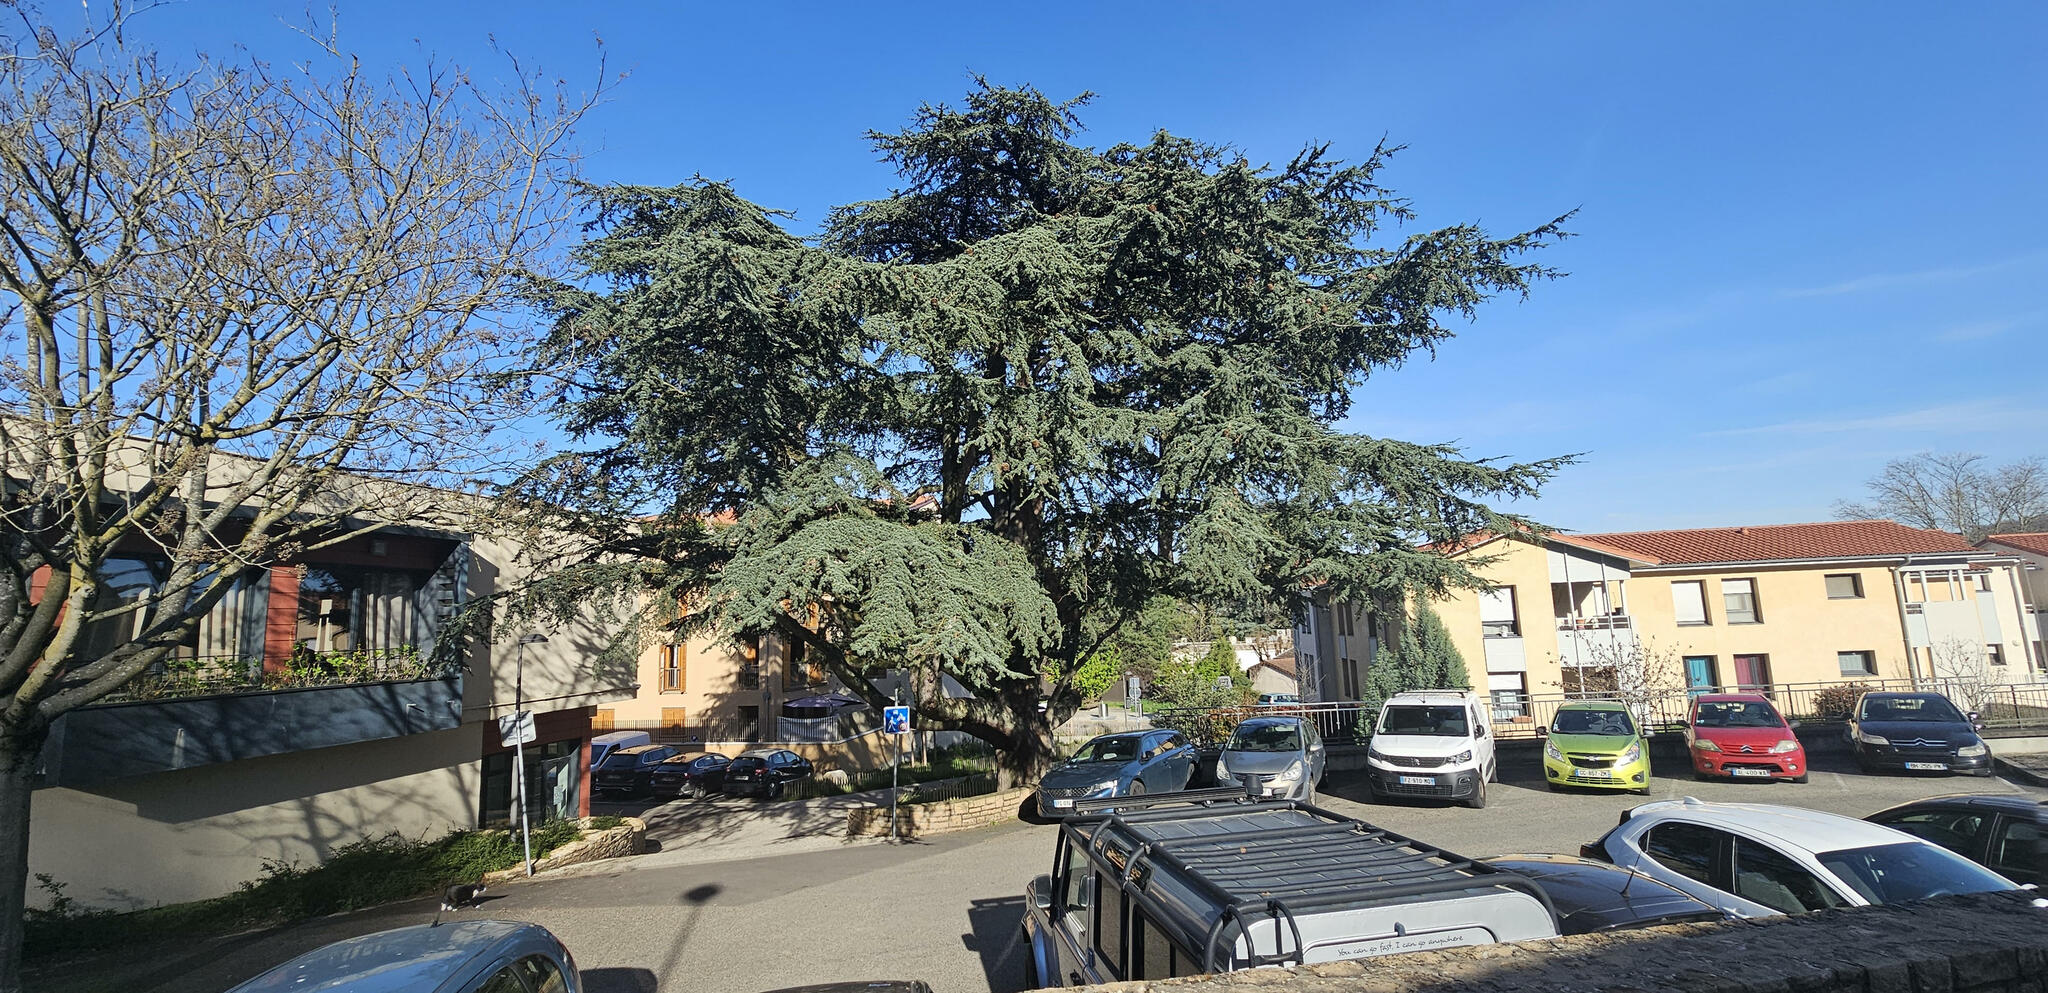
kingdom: Plantae
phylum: Tracheophyta
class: Pinopsida
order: Pinales
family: Pinaceae
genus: Cedrus
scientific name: Cedrus atlantica
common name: Atlas cedar
